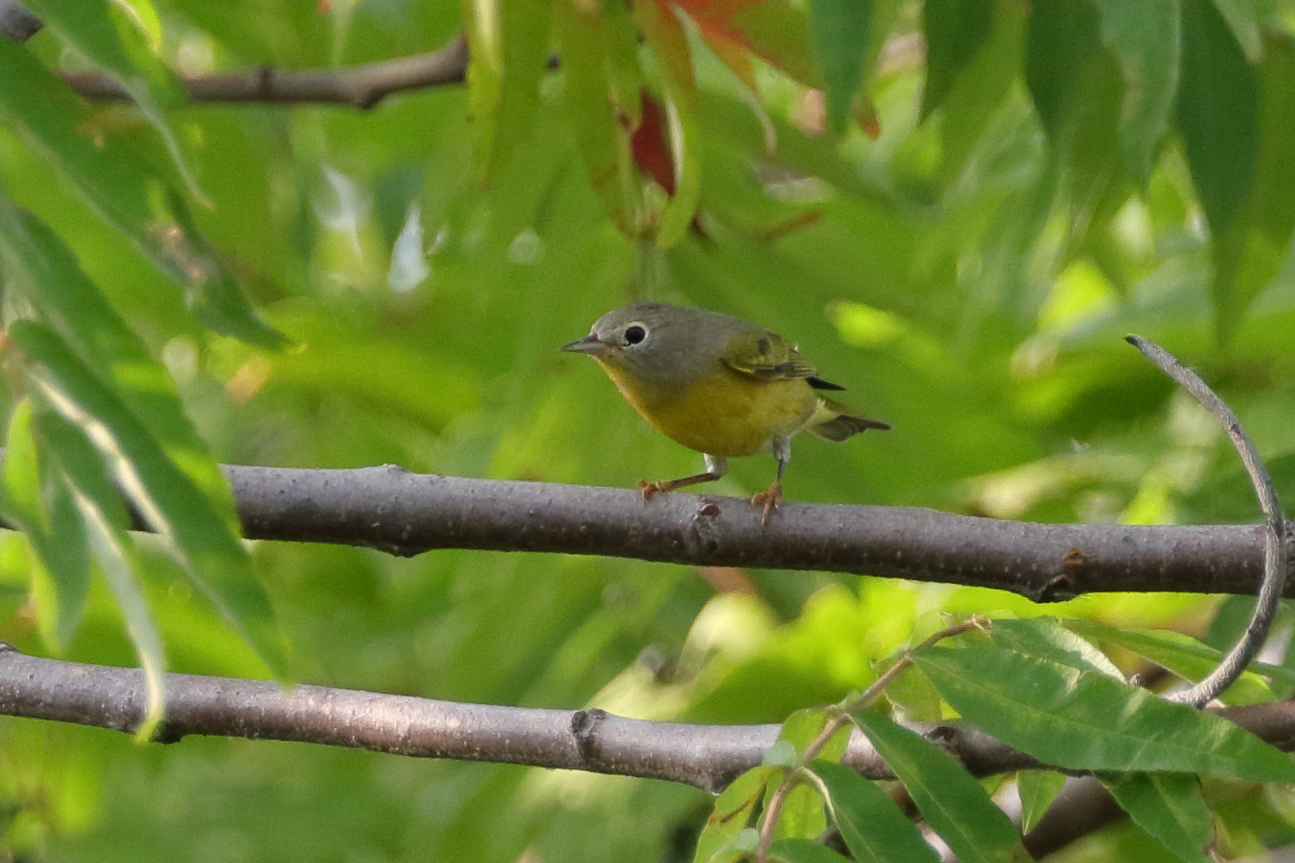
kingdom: Animalia
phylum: Chordata
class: Aves
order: Passeriformes
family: Parulidae
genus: Leiothlypis
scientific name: Leiothlypis ruficapilla
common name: Nashville warbler
